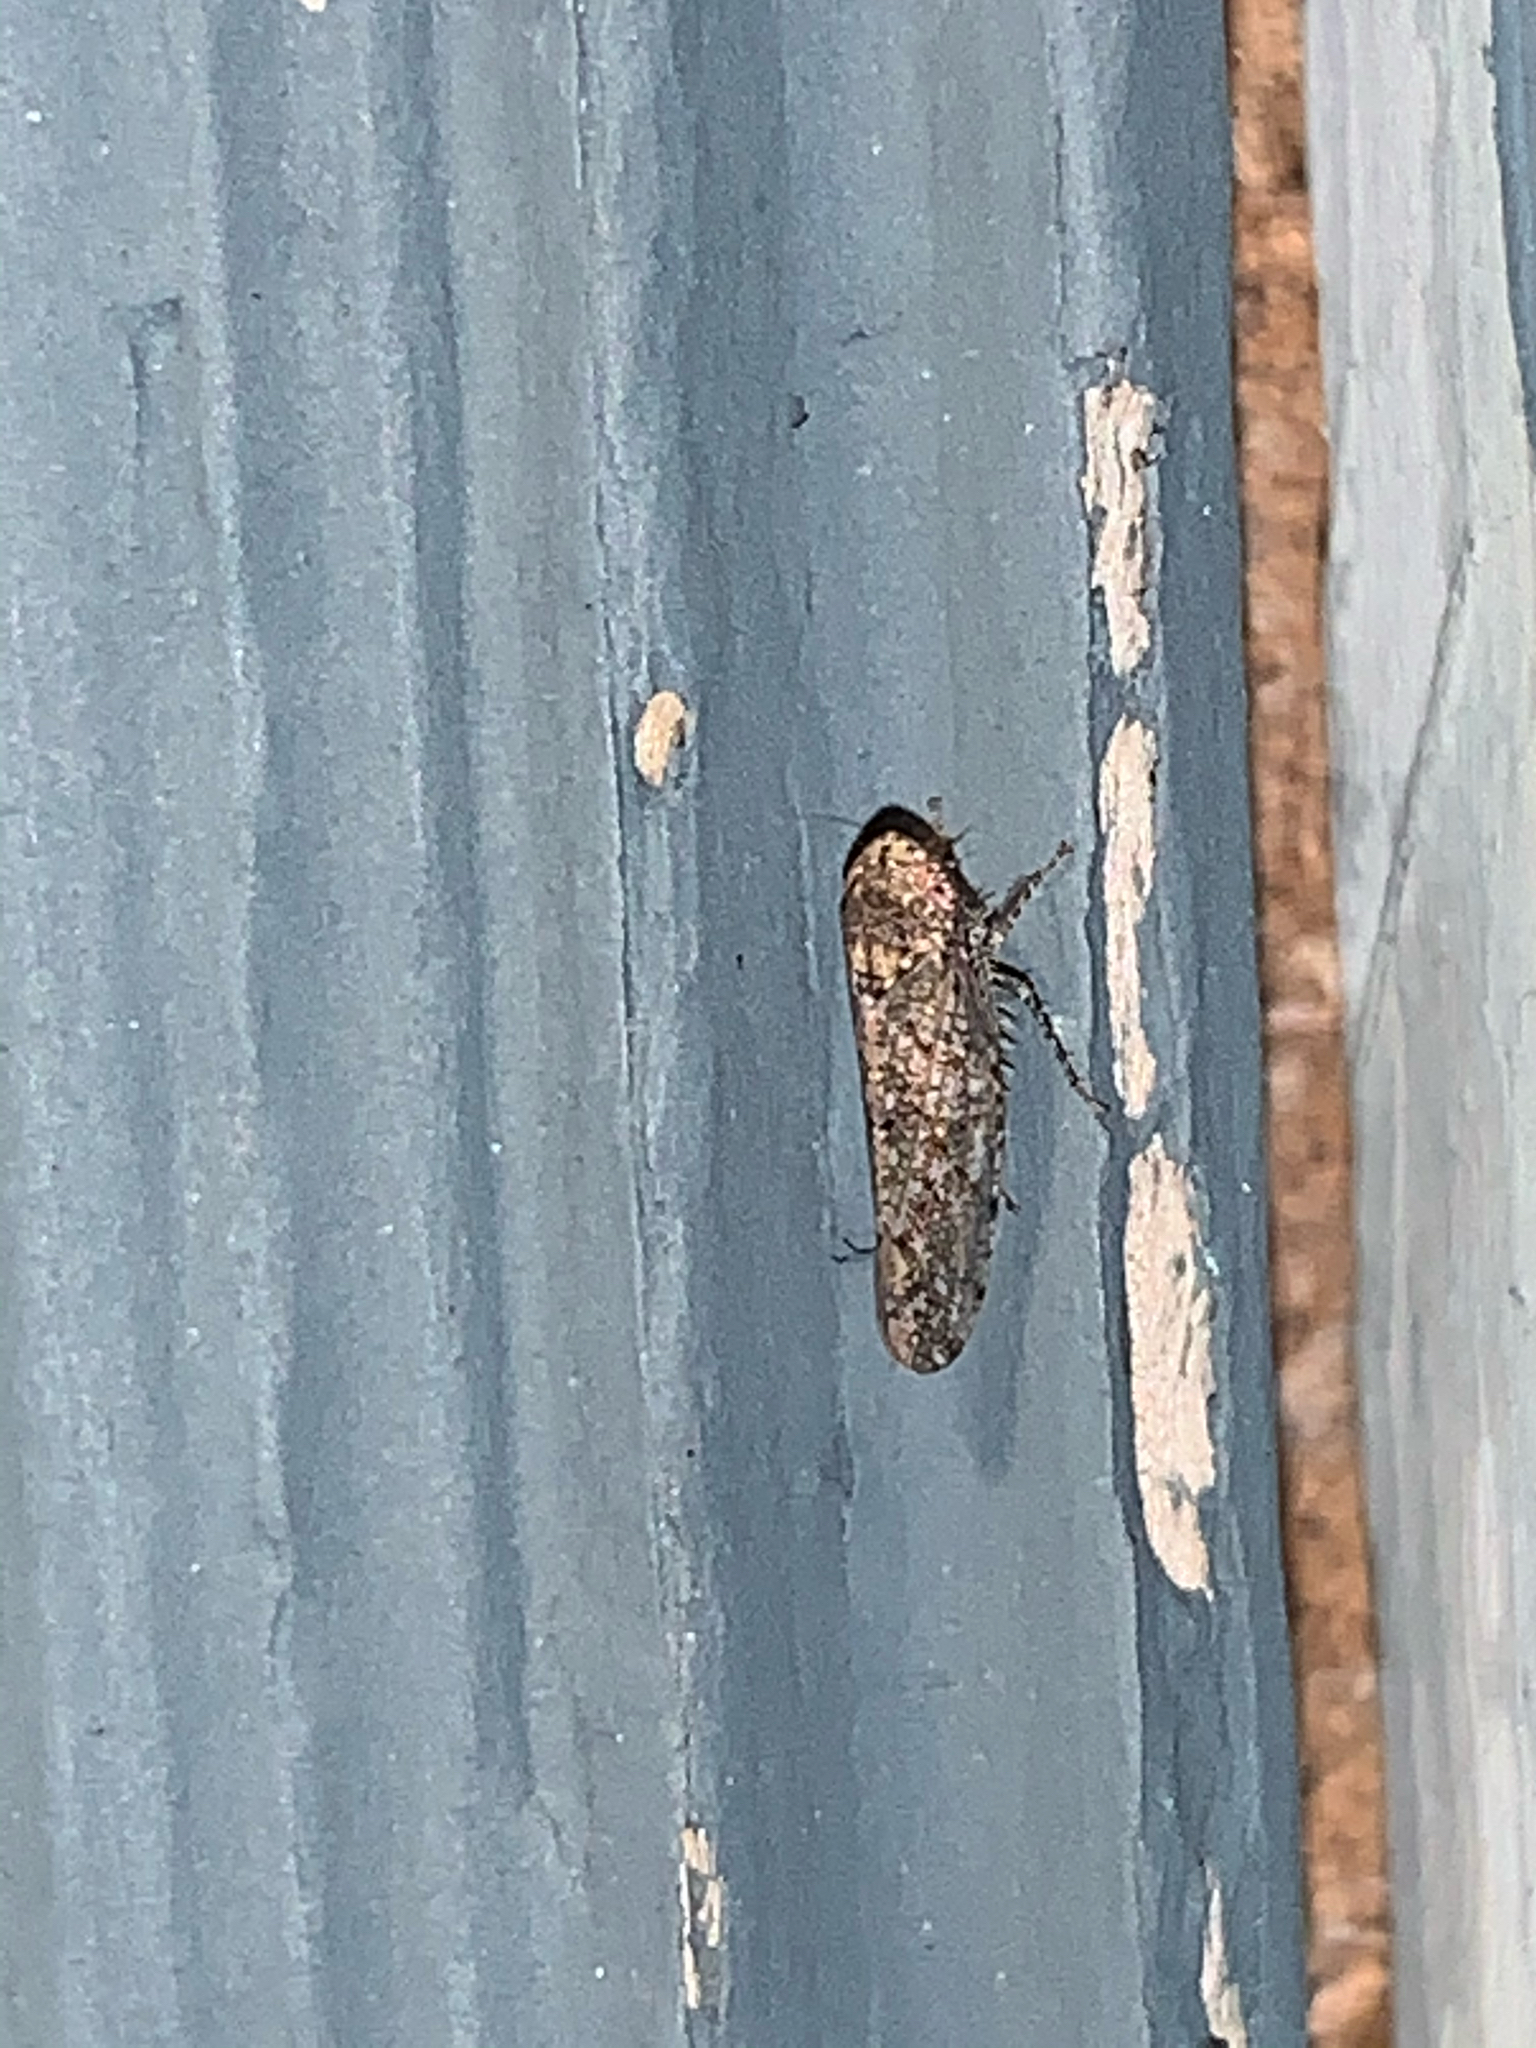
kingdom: Animalia
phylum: Arthropoda
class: Insecta
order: Hemiptera
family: Cicadellidae
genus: Paraphlepsius
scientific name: Paraphlepsius
